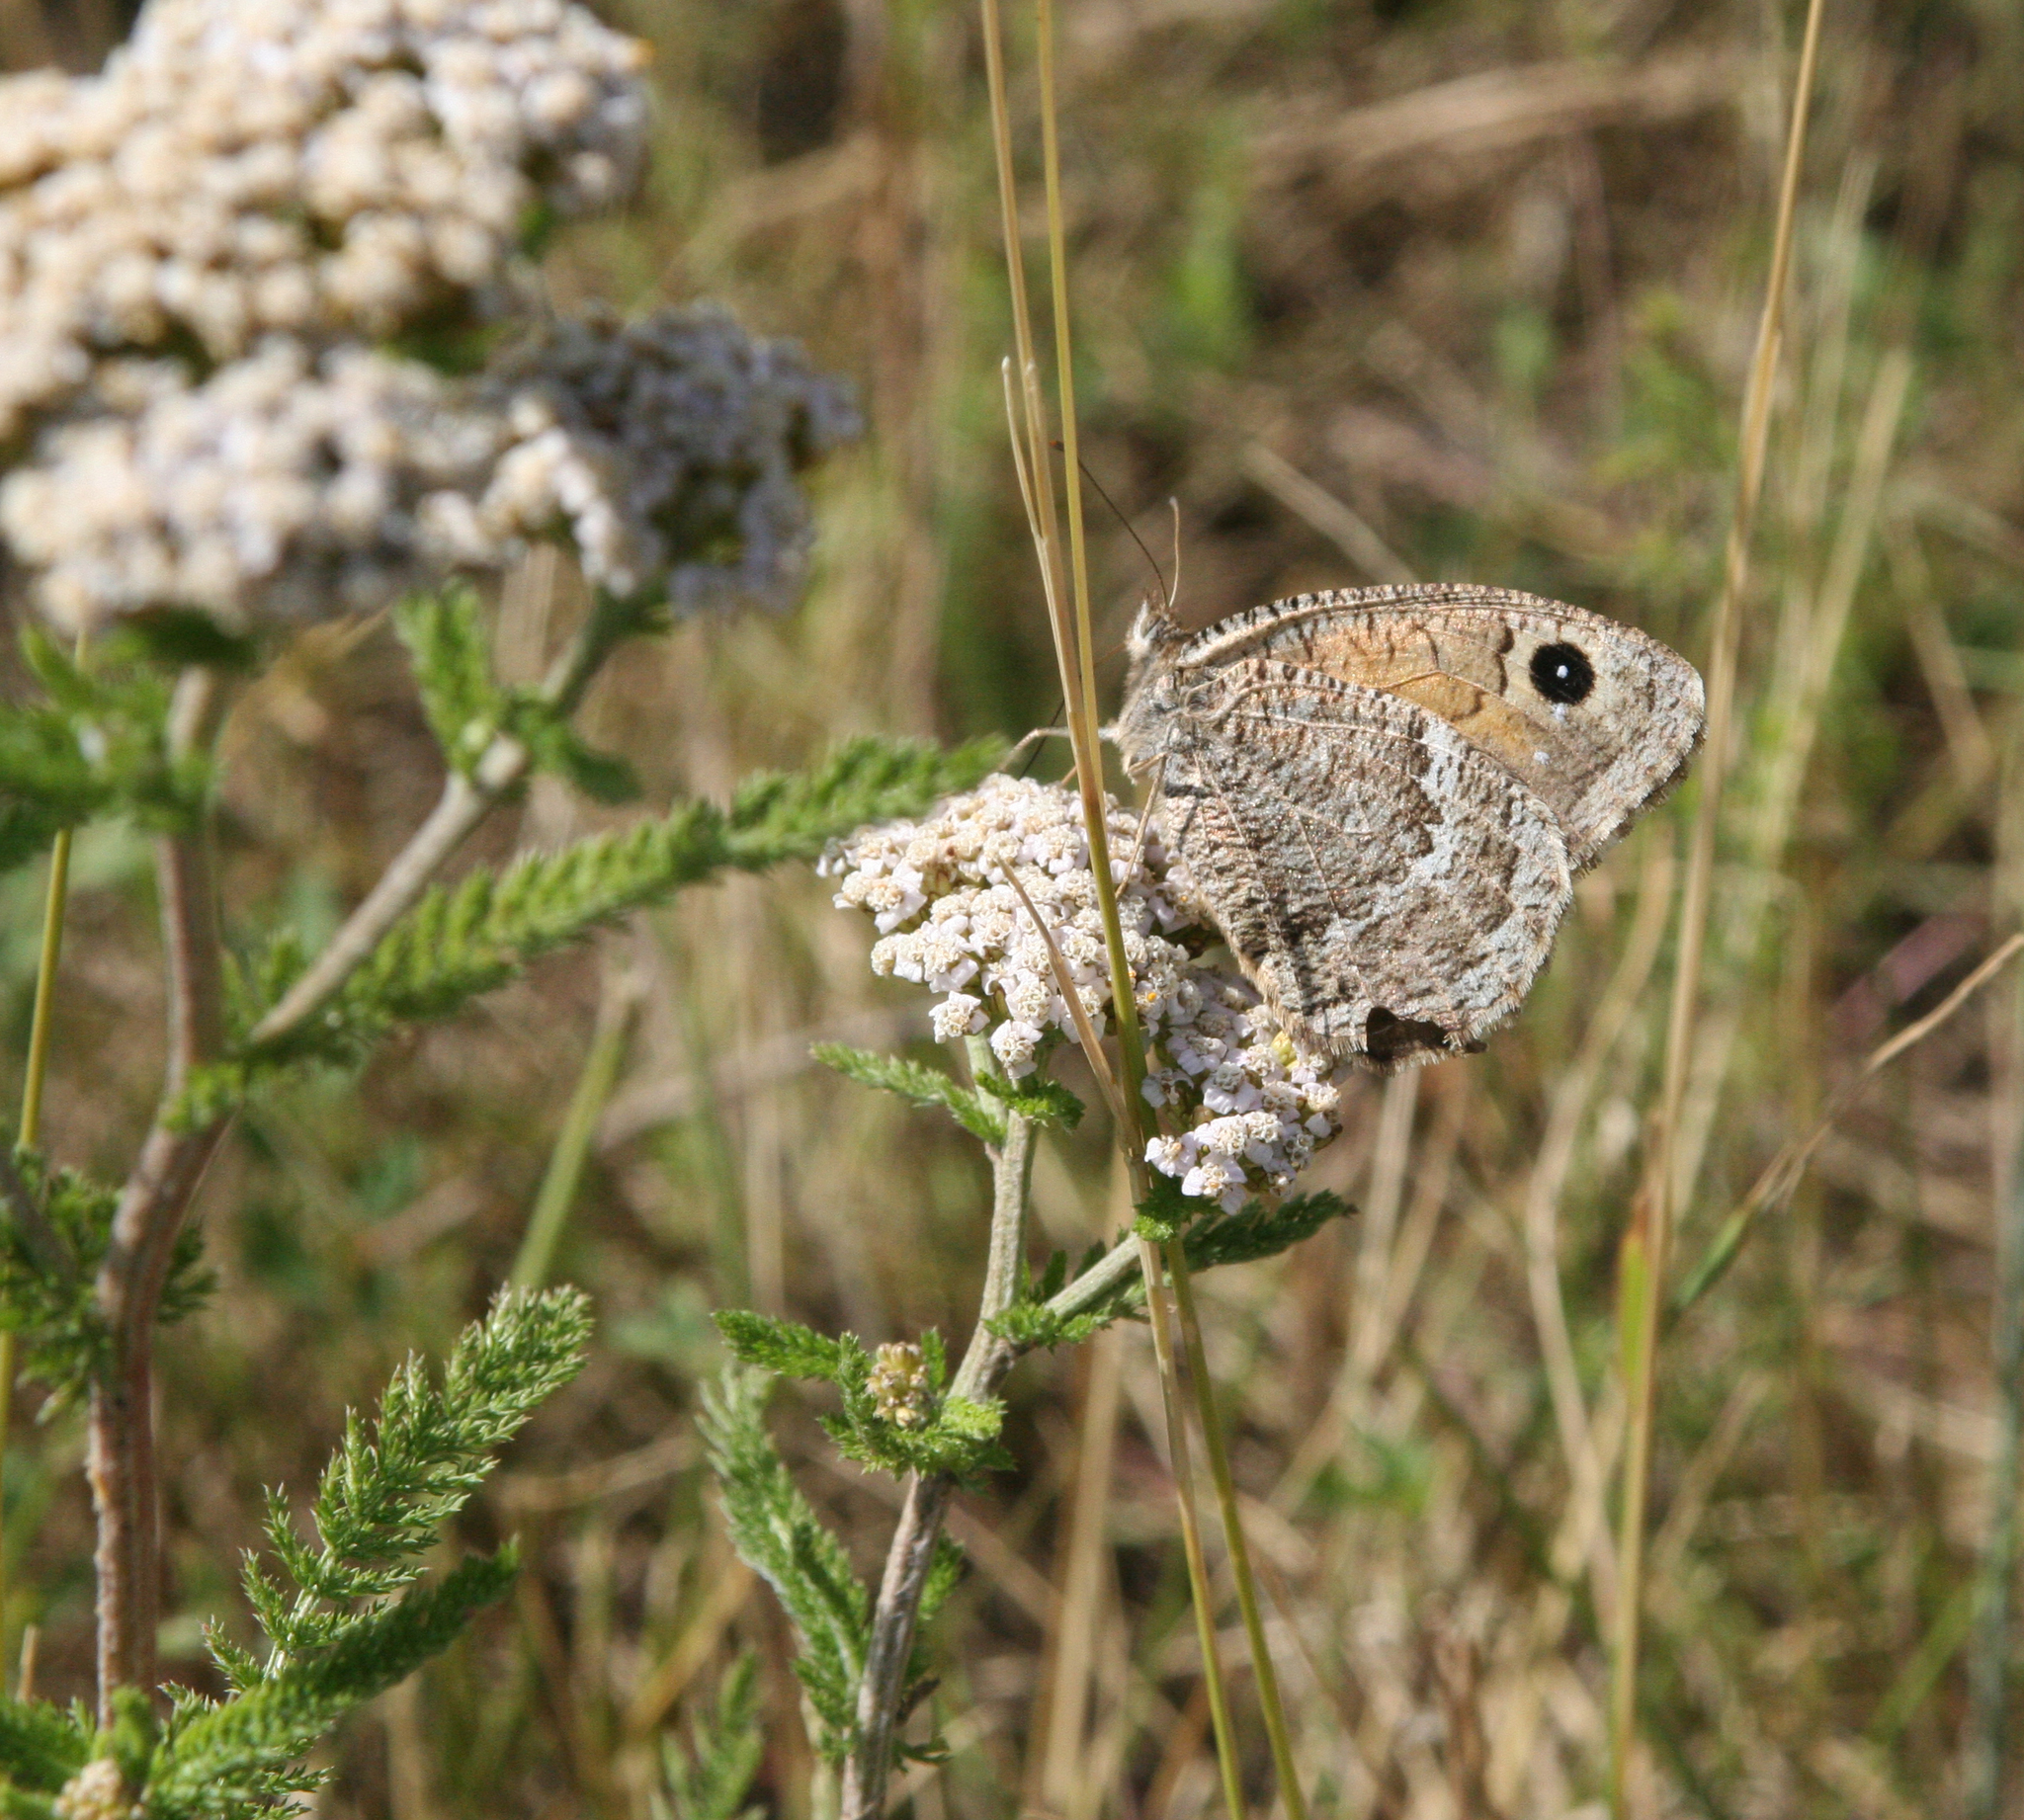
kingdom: Animalia
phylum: Arthropoda
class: Insecta
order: Lepidoptera
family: Nymphalidae
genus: Satyrus
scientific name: Satyrus ferula
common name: Great sooty satyr
